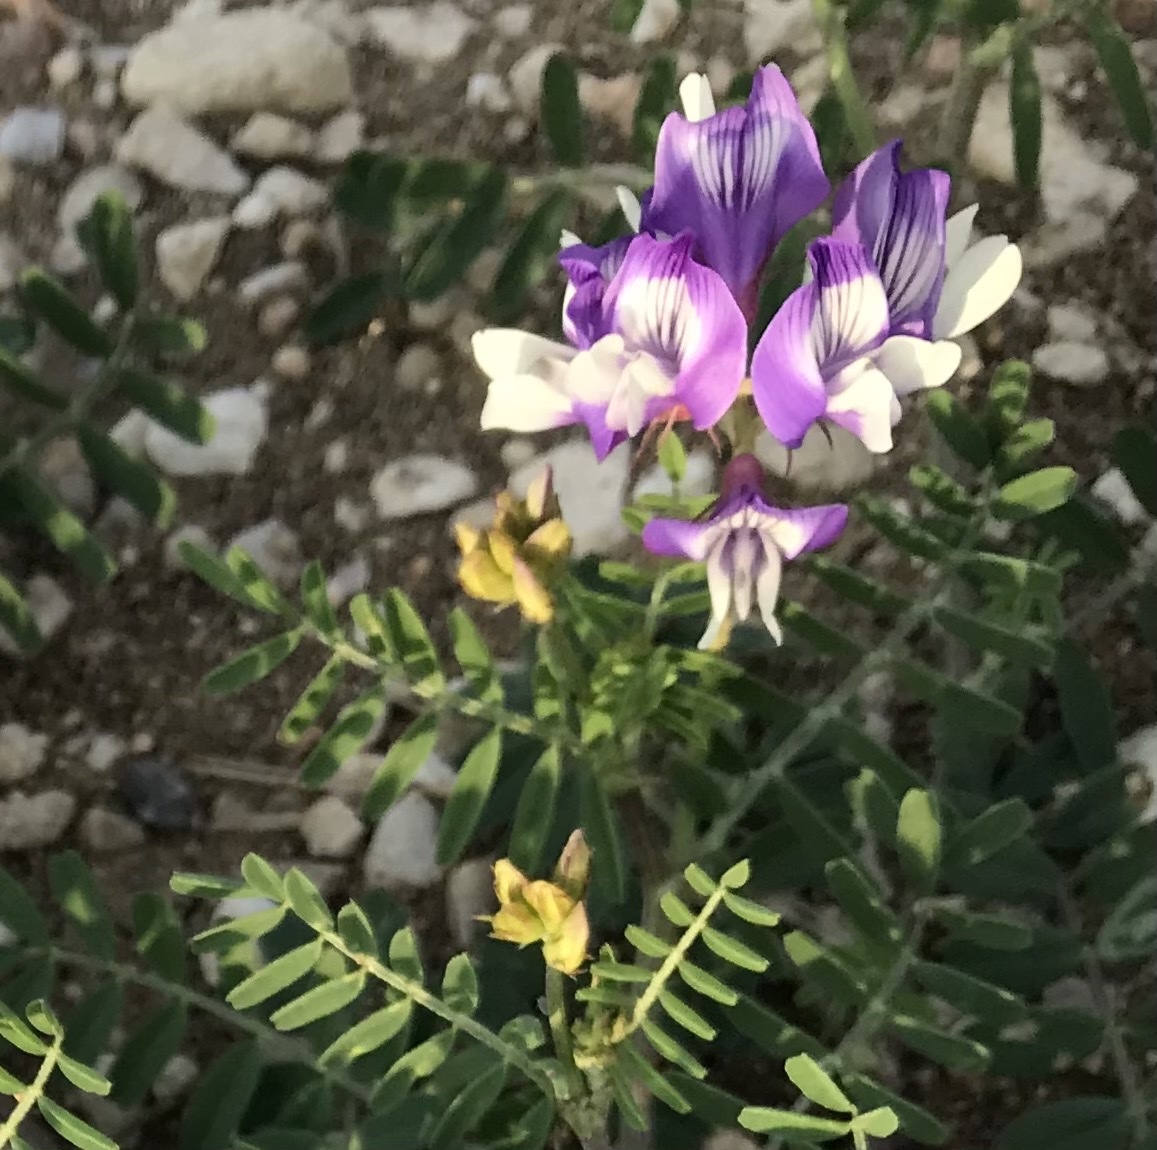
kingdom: Plantae
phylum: Tracheophyta
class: Magnoliopsida
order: Fabales
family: Fabaceae
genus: Astragalus
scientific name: Astragalus lindheimeri
